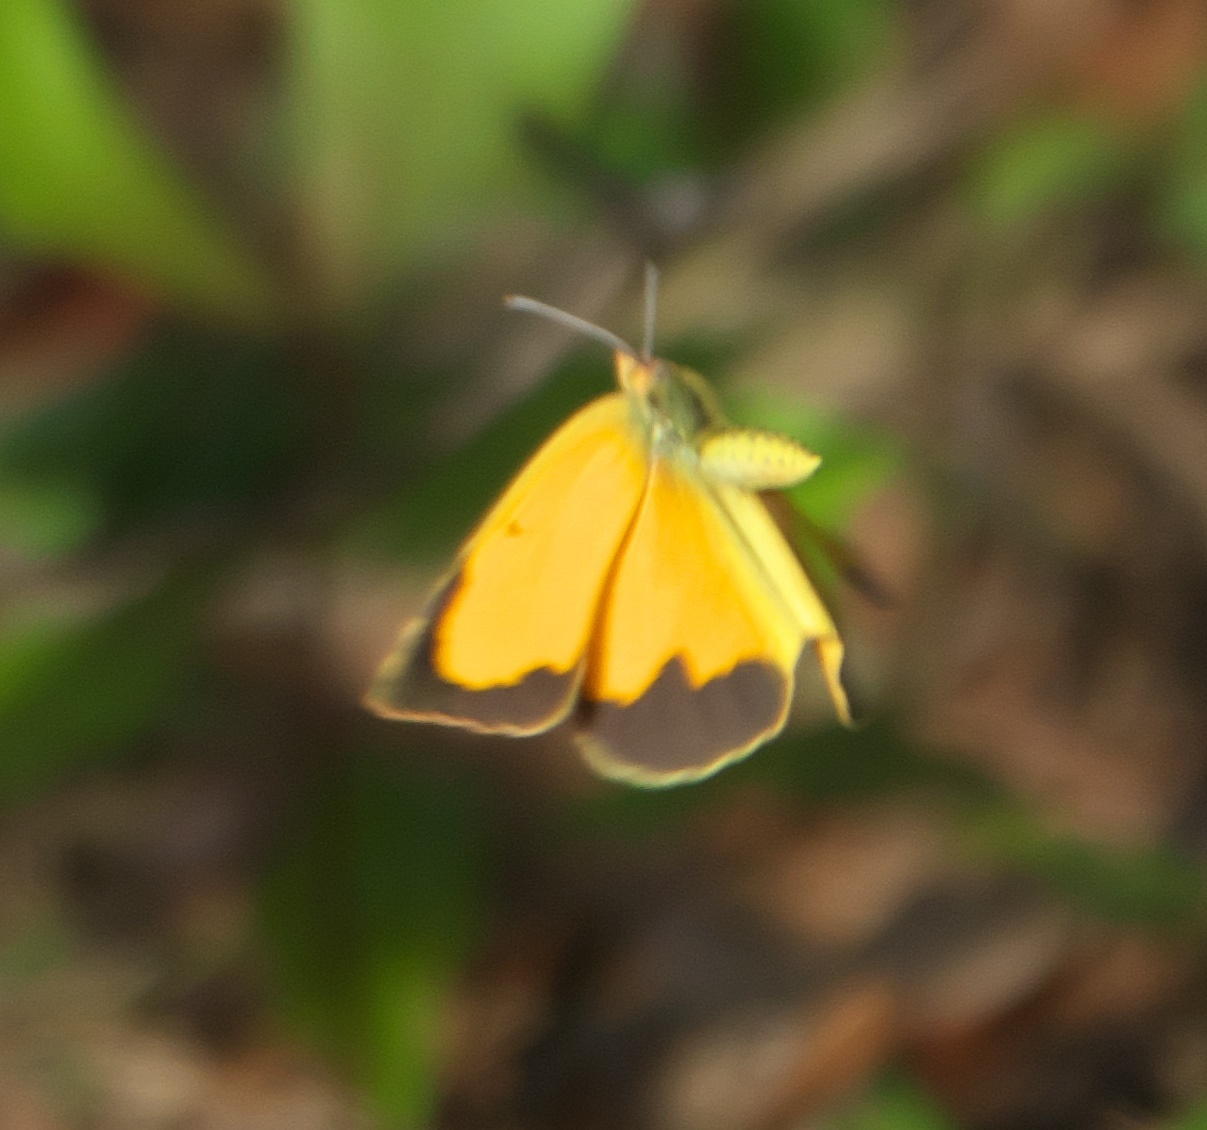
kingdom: Animalia
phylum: Arthropoda
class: Insecta
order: Lepidoptera
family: Pieridae
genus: Abaeis
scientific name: Abaeis nicippe
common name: Sleepy orange
